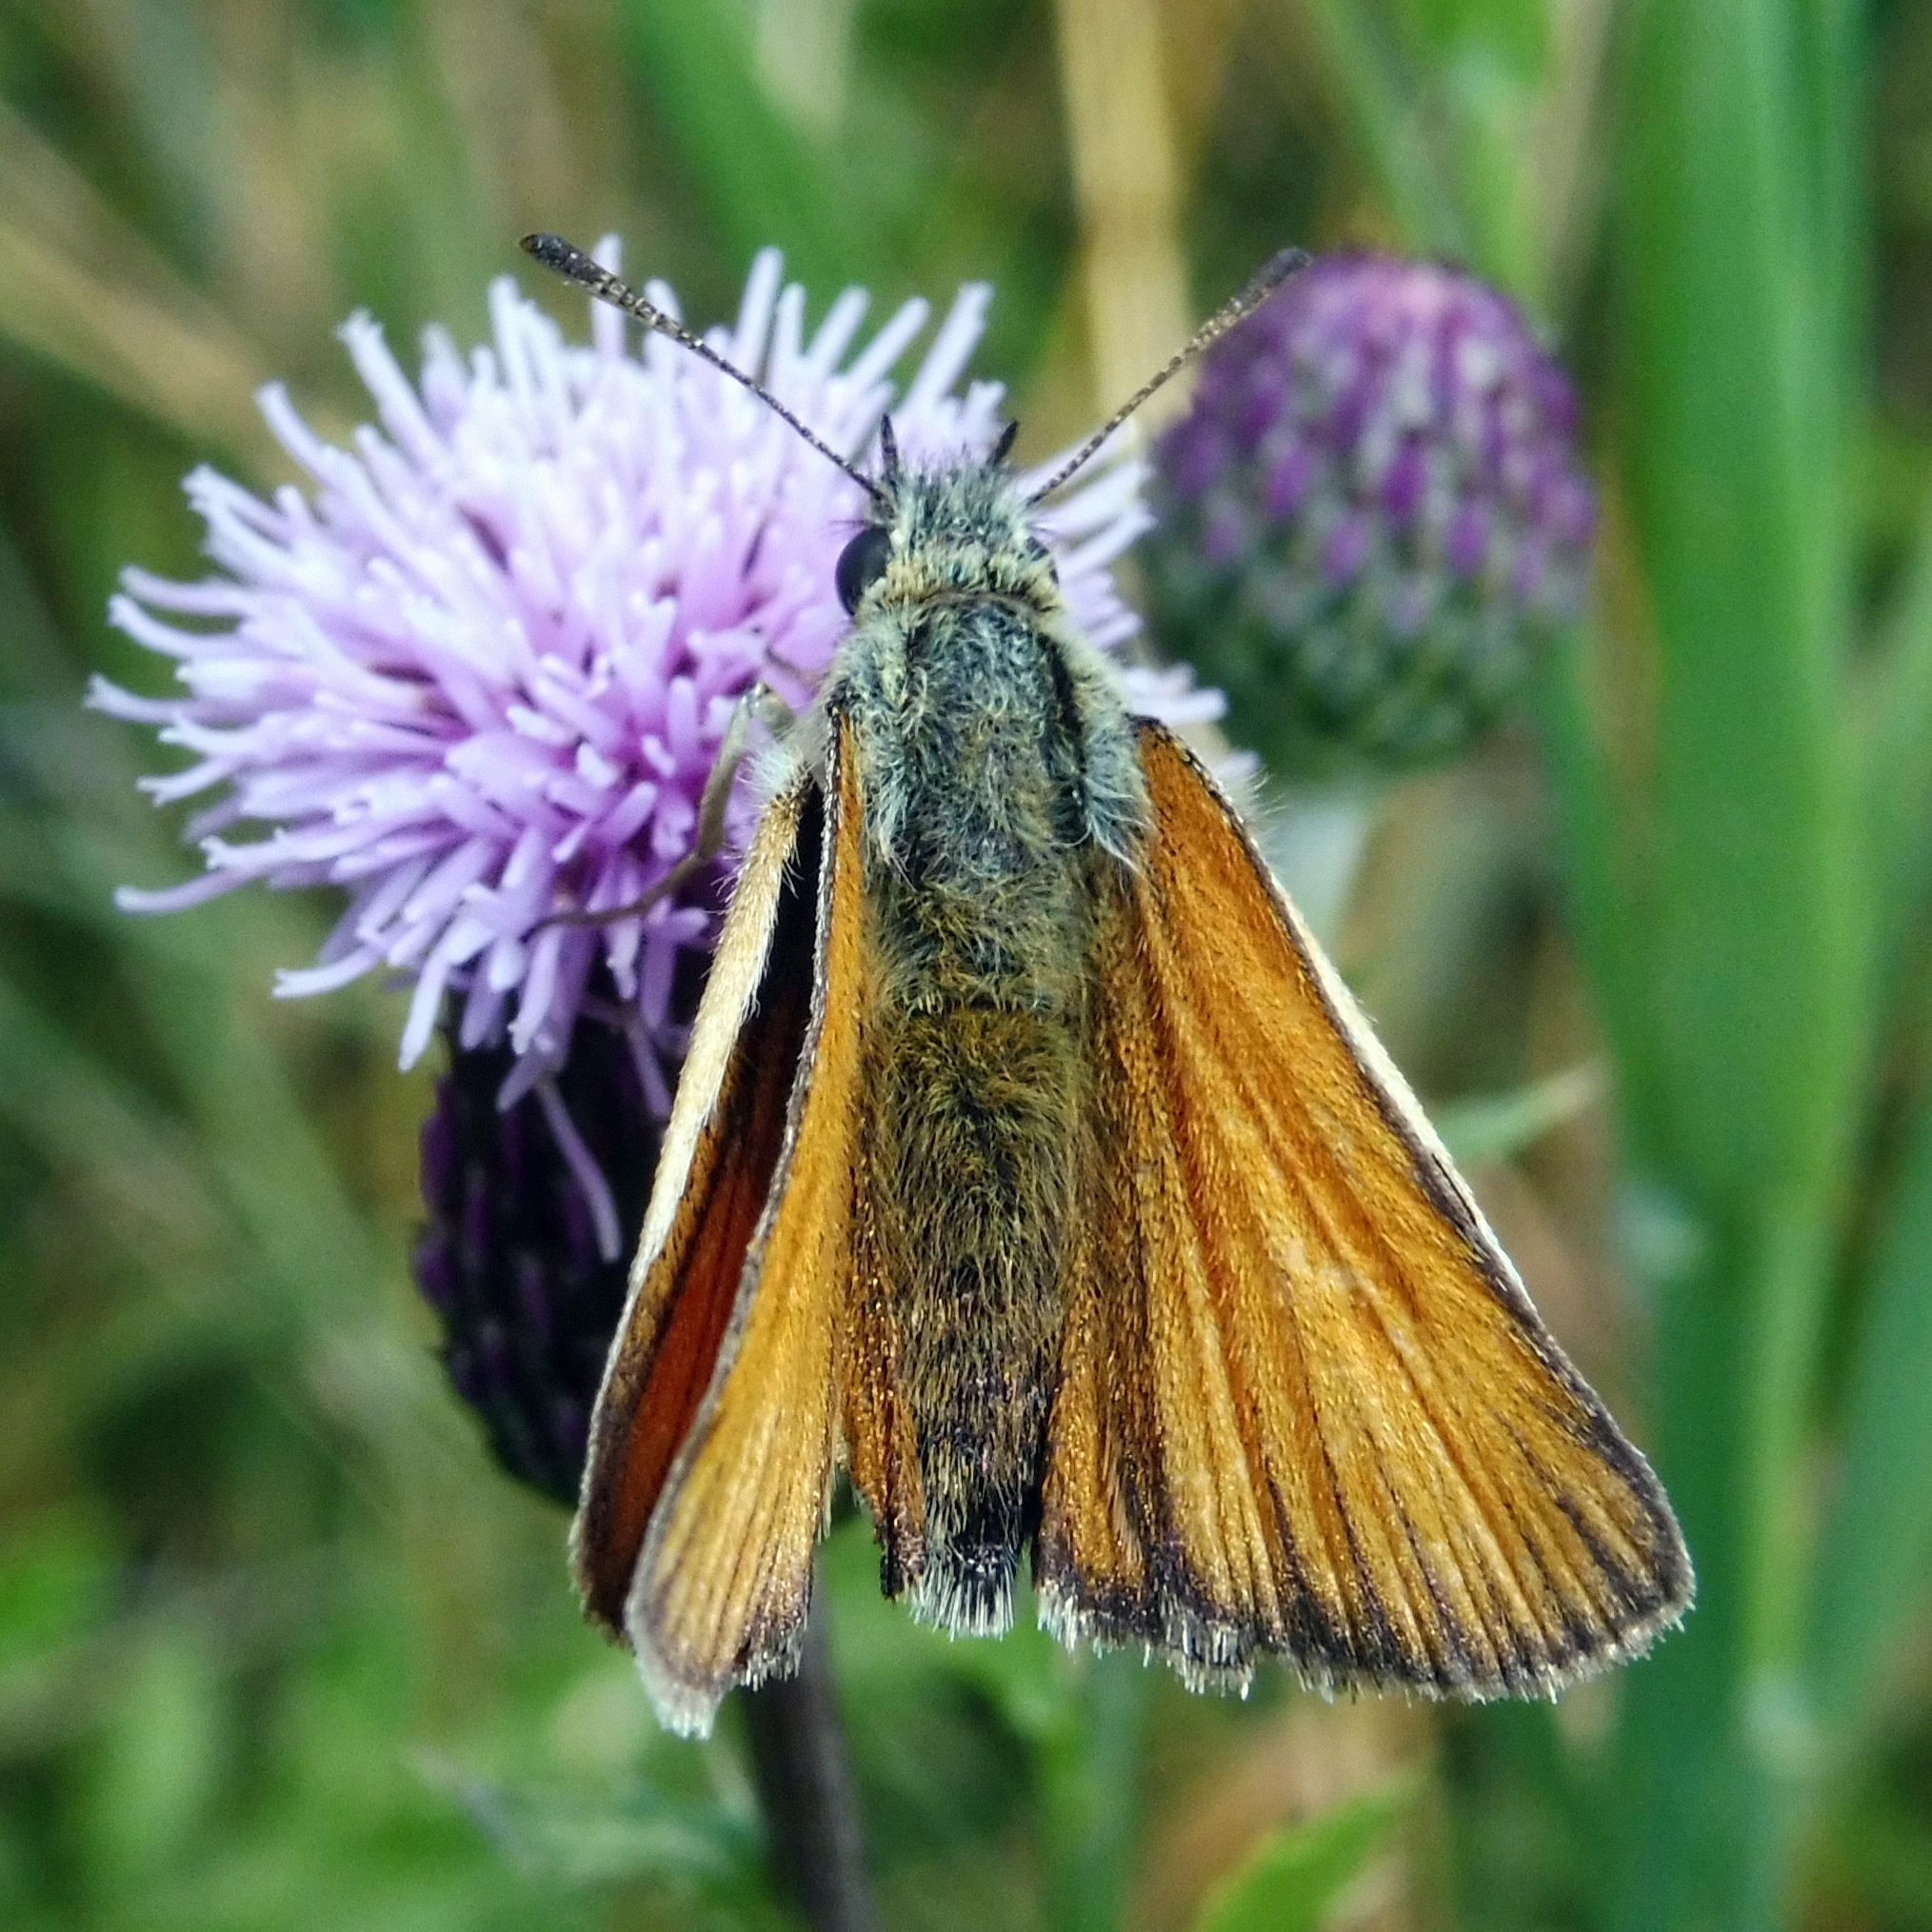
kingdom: Animalia
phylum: Arthropoda
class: Insecta
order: Lepidoptera
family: Hesperiidae
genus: Thymelicus
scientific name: Thymelicus lineola
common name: Essex skipper
